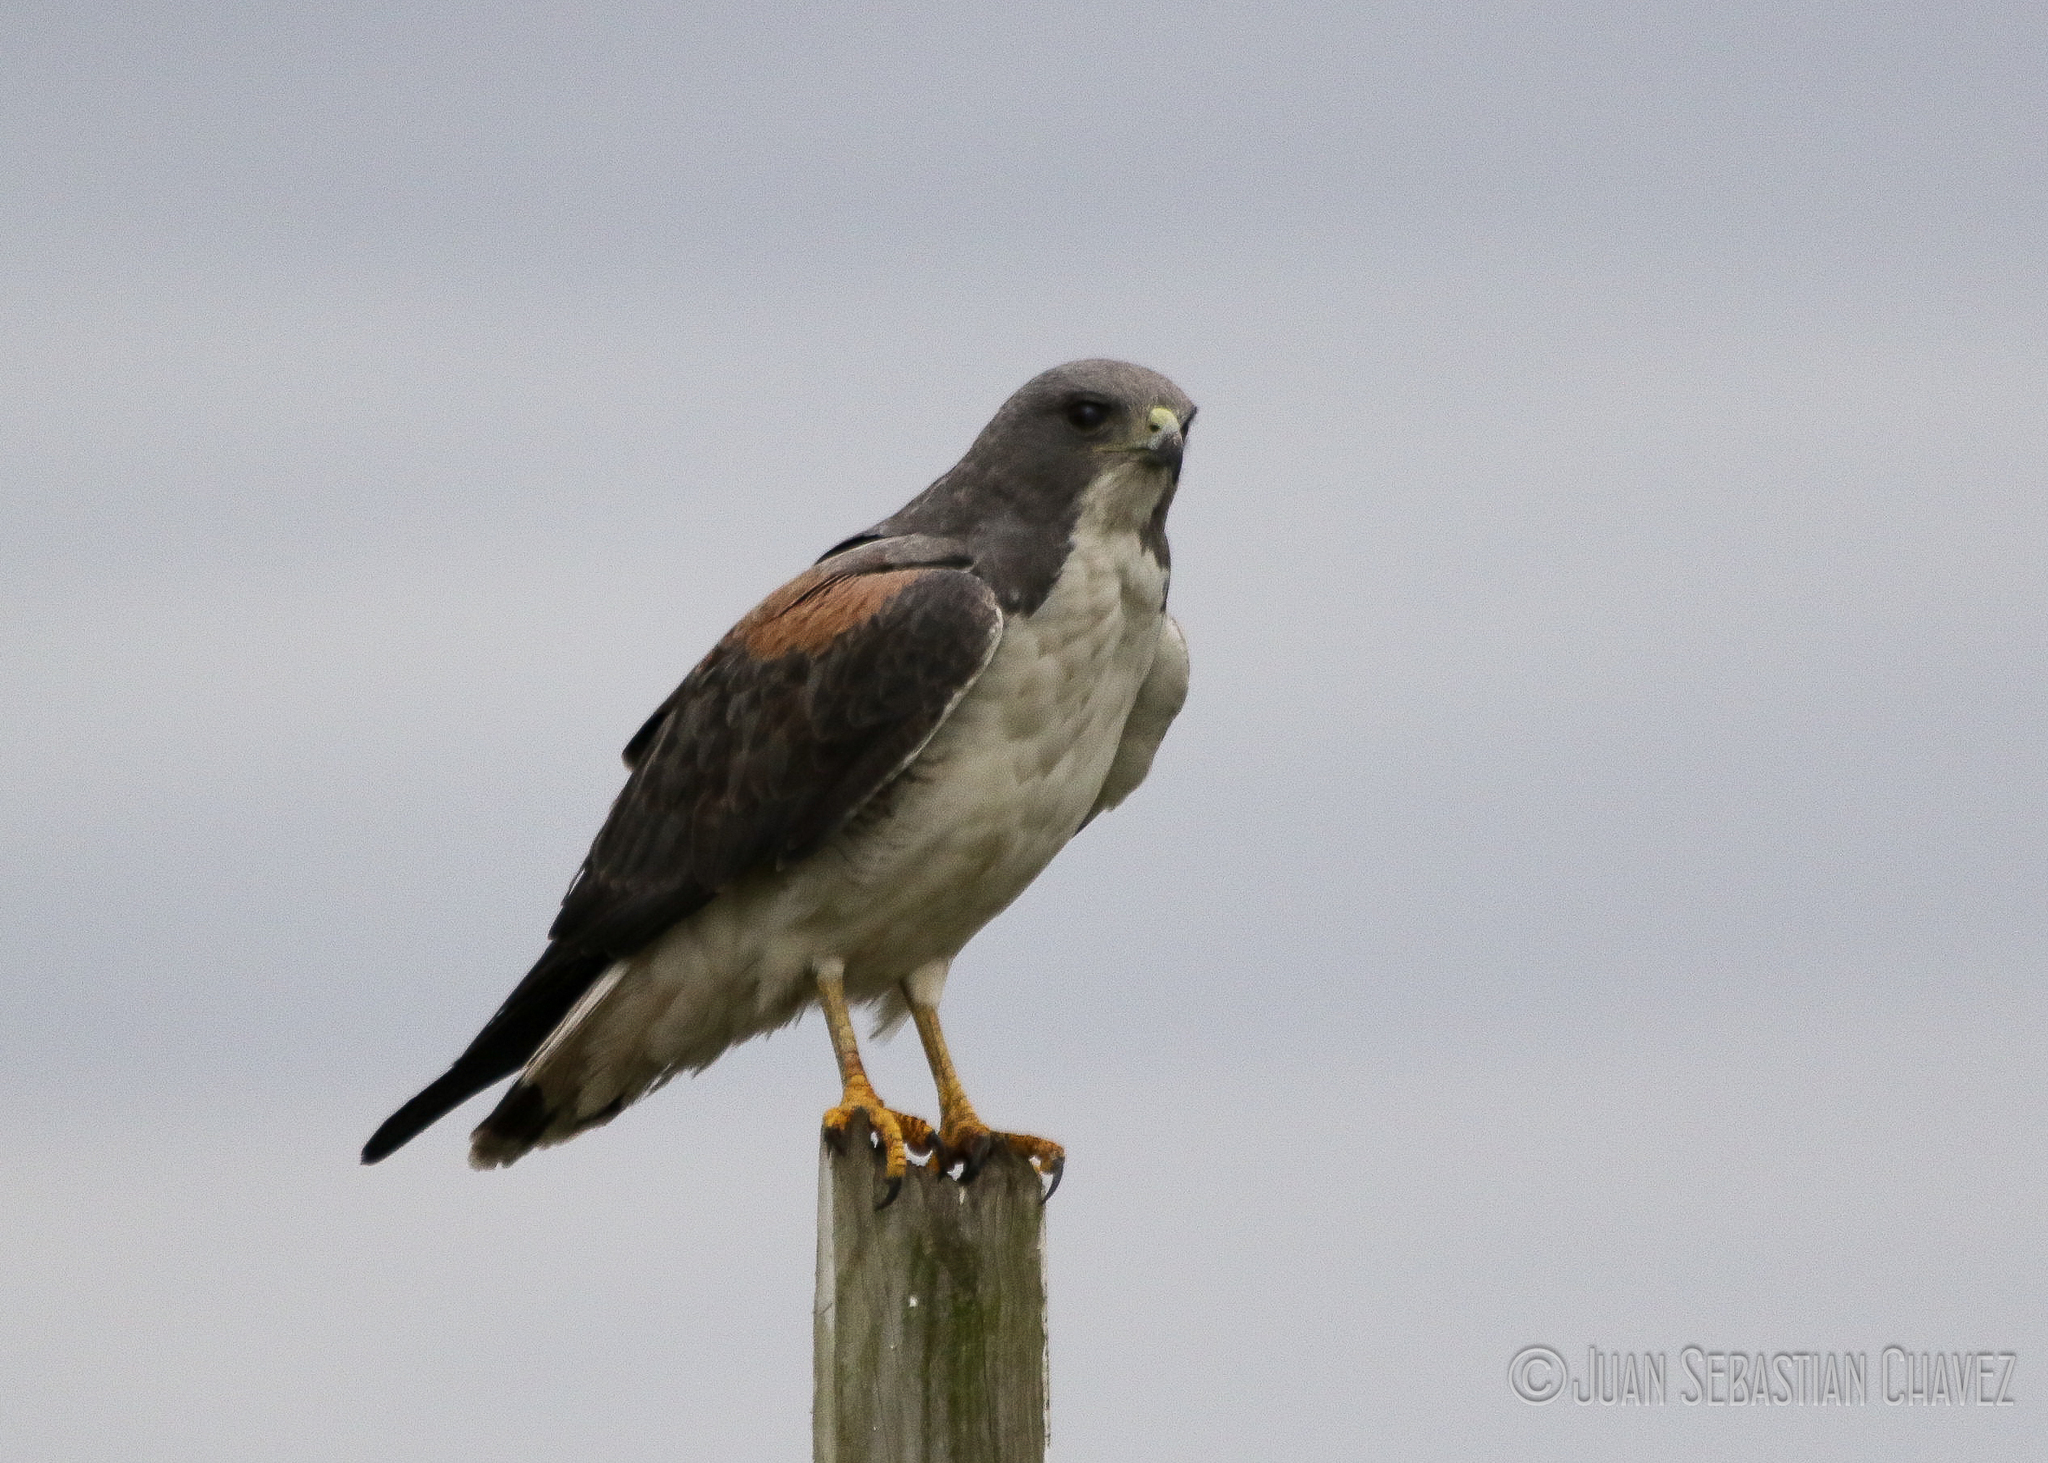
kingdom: Animalia
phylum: Chordata
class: Aves
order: Accipitriformes
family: Accipitridae
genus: Buteo
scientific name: Buteo albicaudatus
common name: White-tailed hawk
